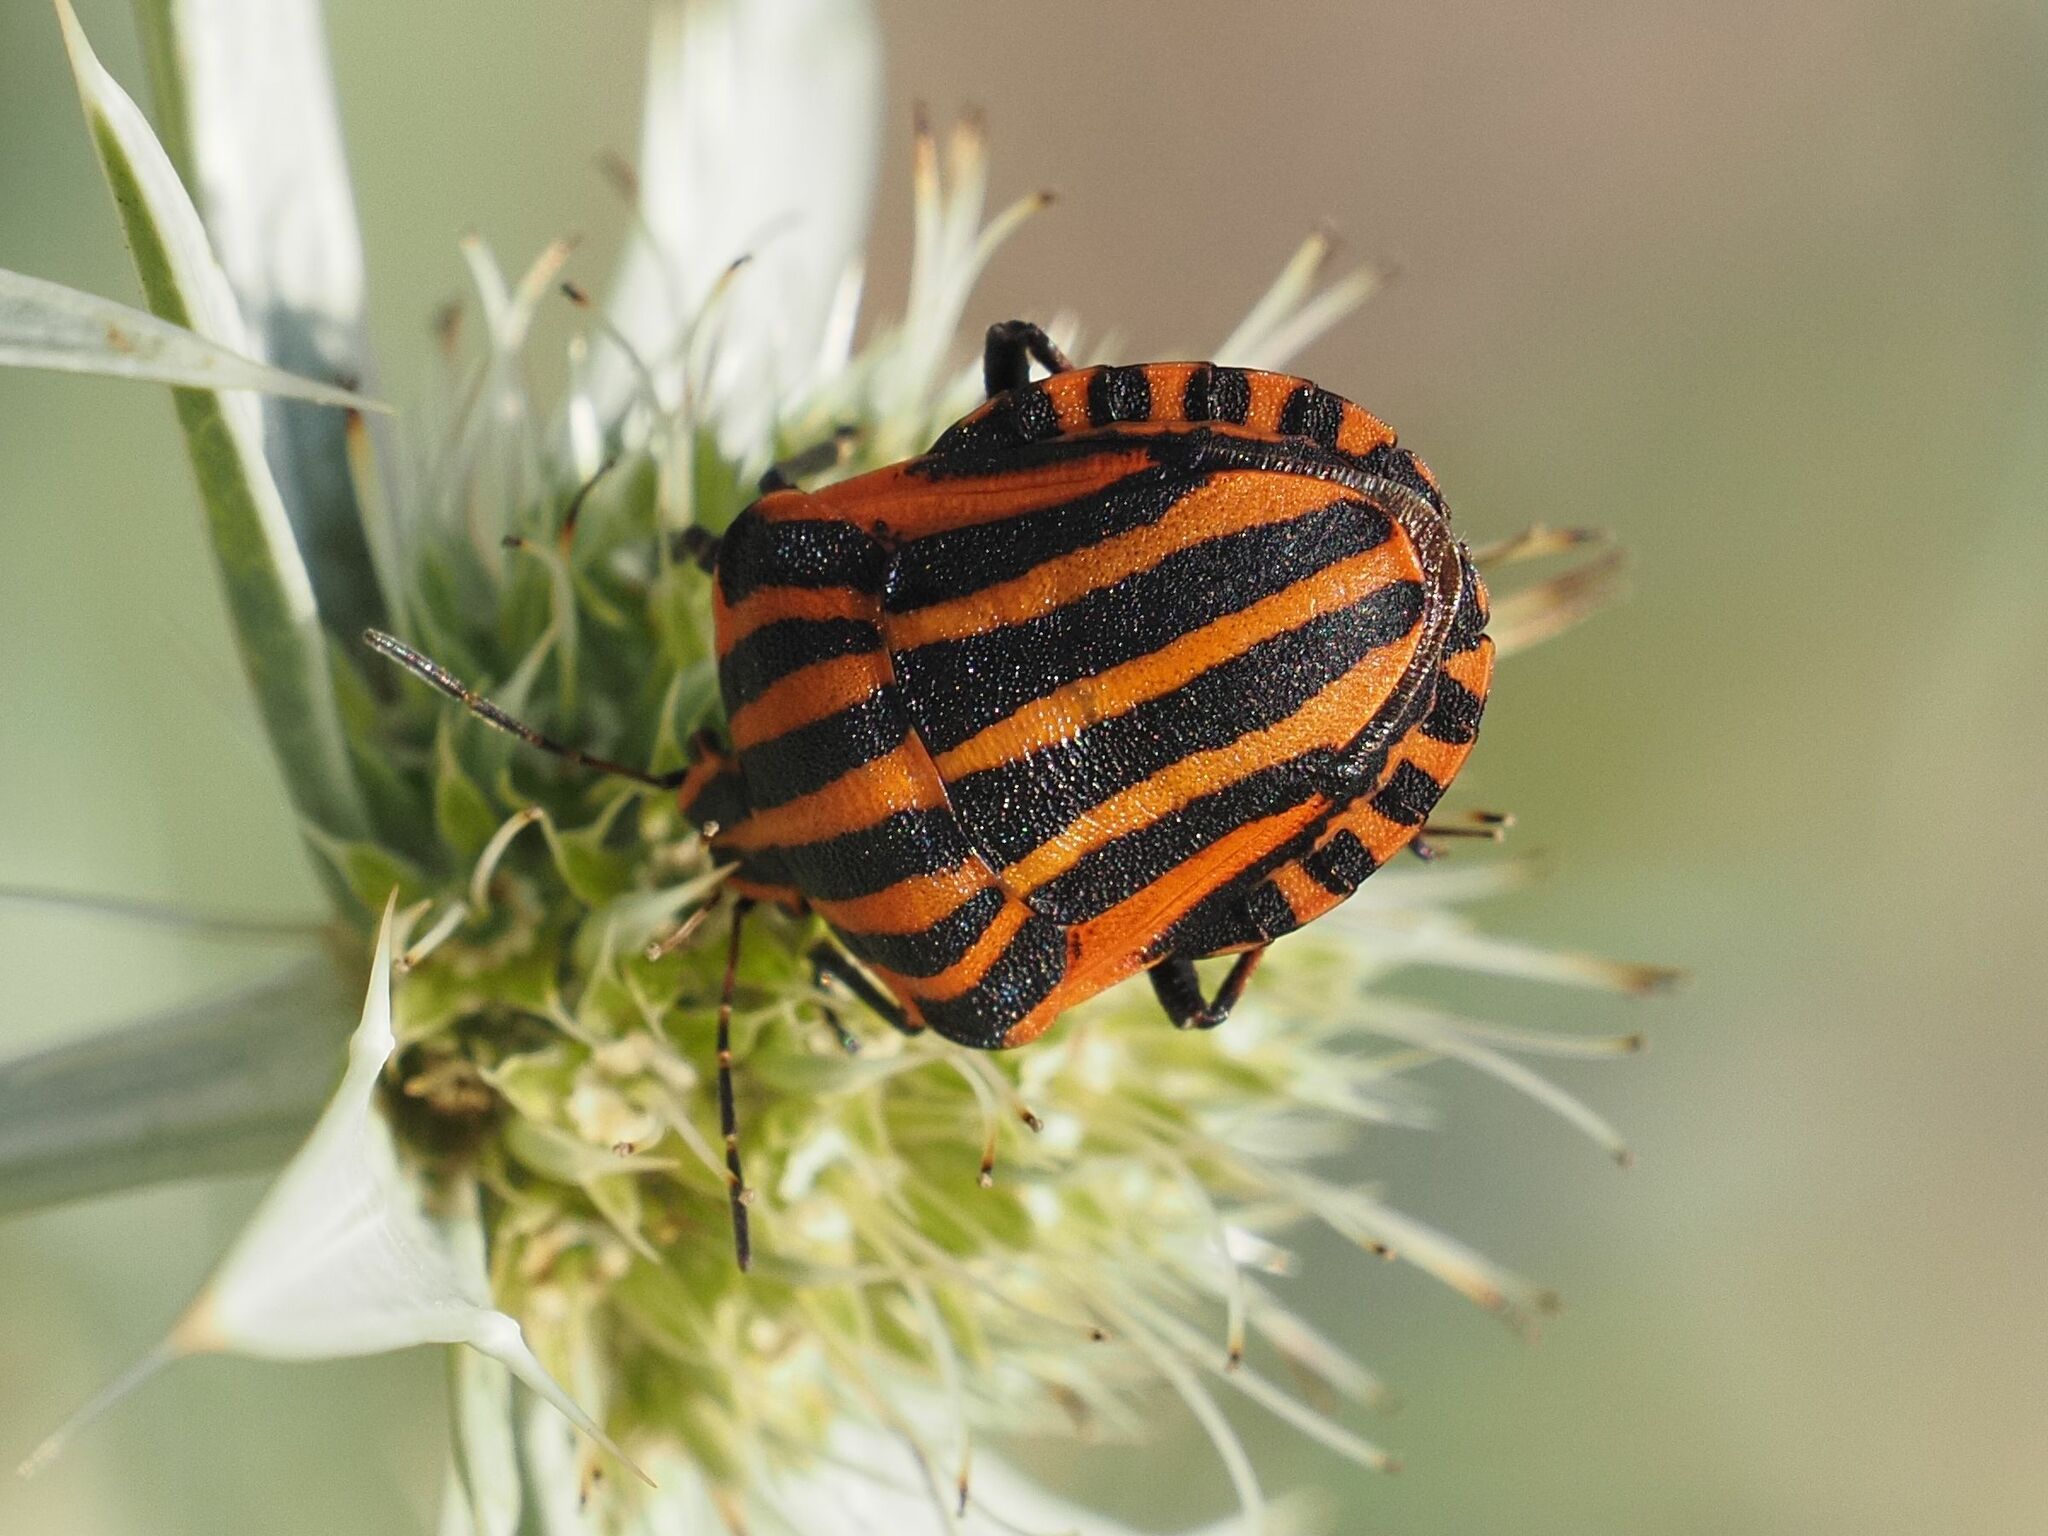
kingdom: Animalia
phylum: Arthropoda
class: Insecta
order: Hemiptera
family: Pentatomidae
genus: Graphosoma
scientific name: Graphosoma italicum
